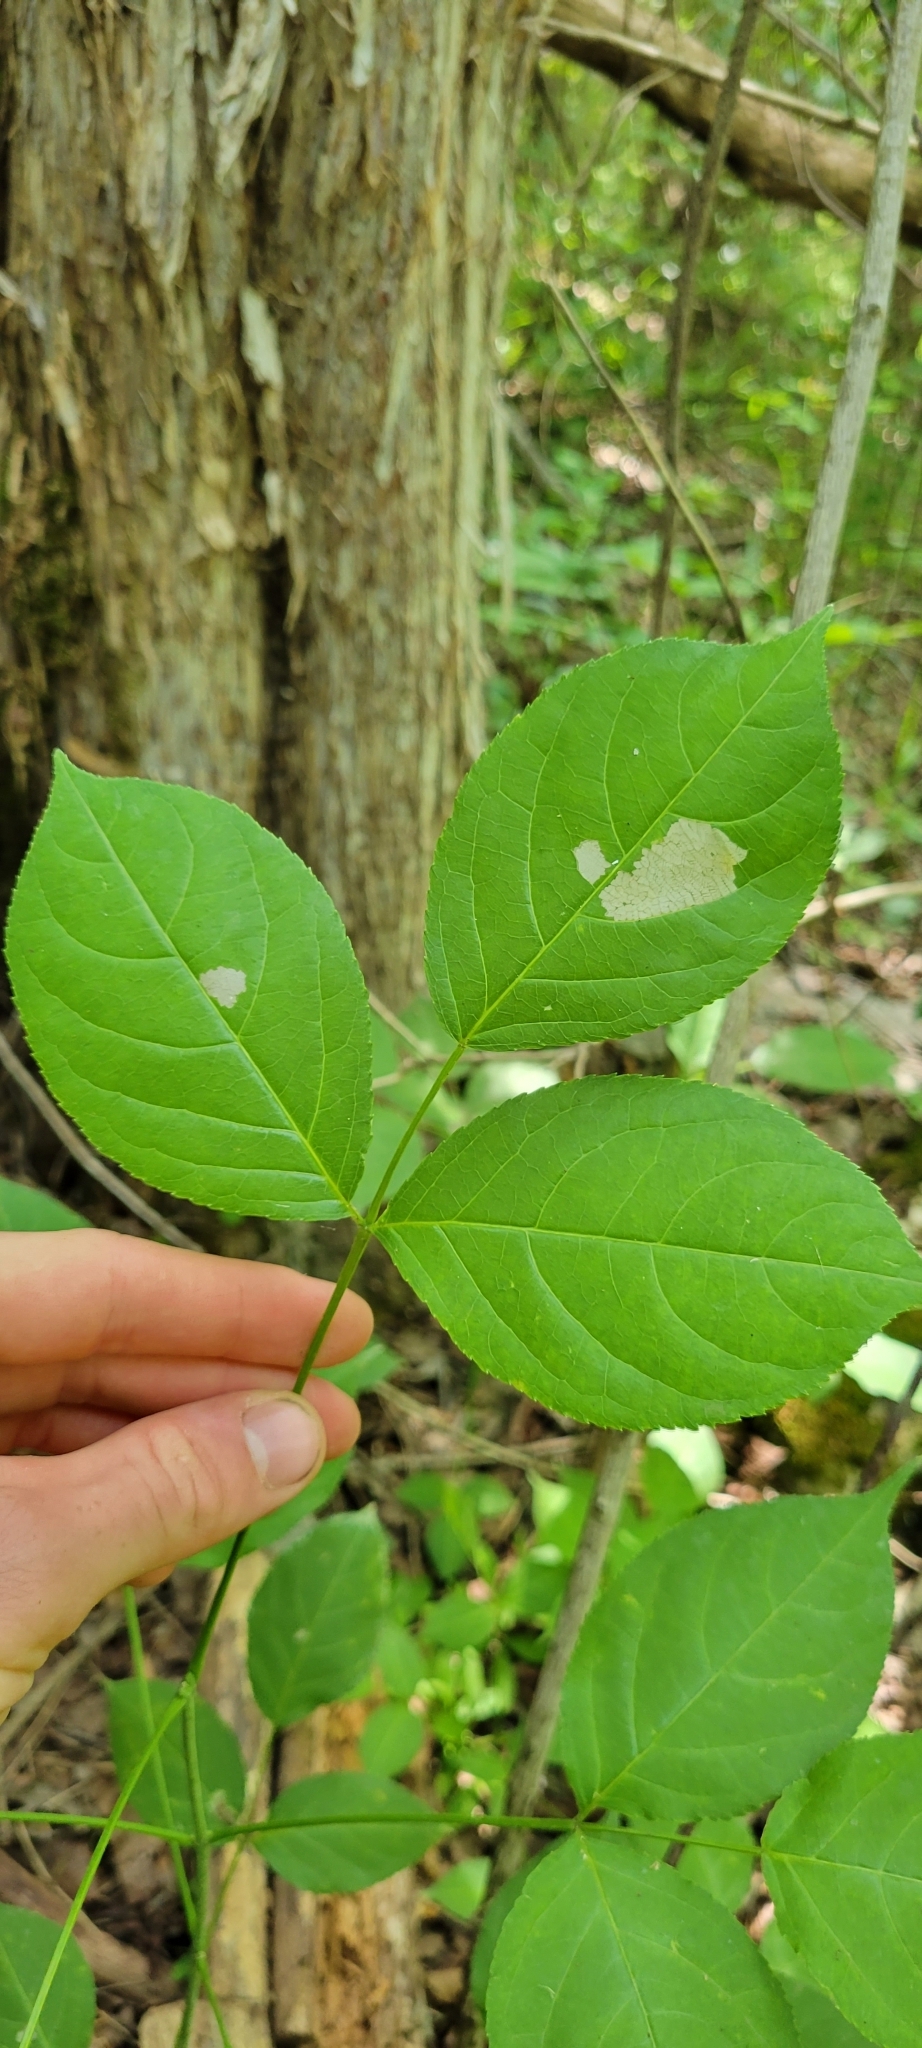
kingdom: Plantae
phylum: Tracheophyta
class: Magnoliopsida
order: Crossosomatales
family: Staphyleaceae
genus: Staphylea
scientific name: Staphylea trifolia
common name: American bladdernut
